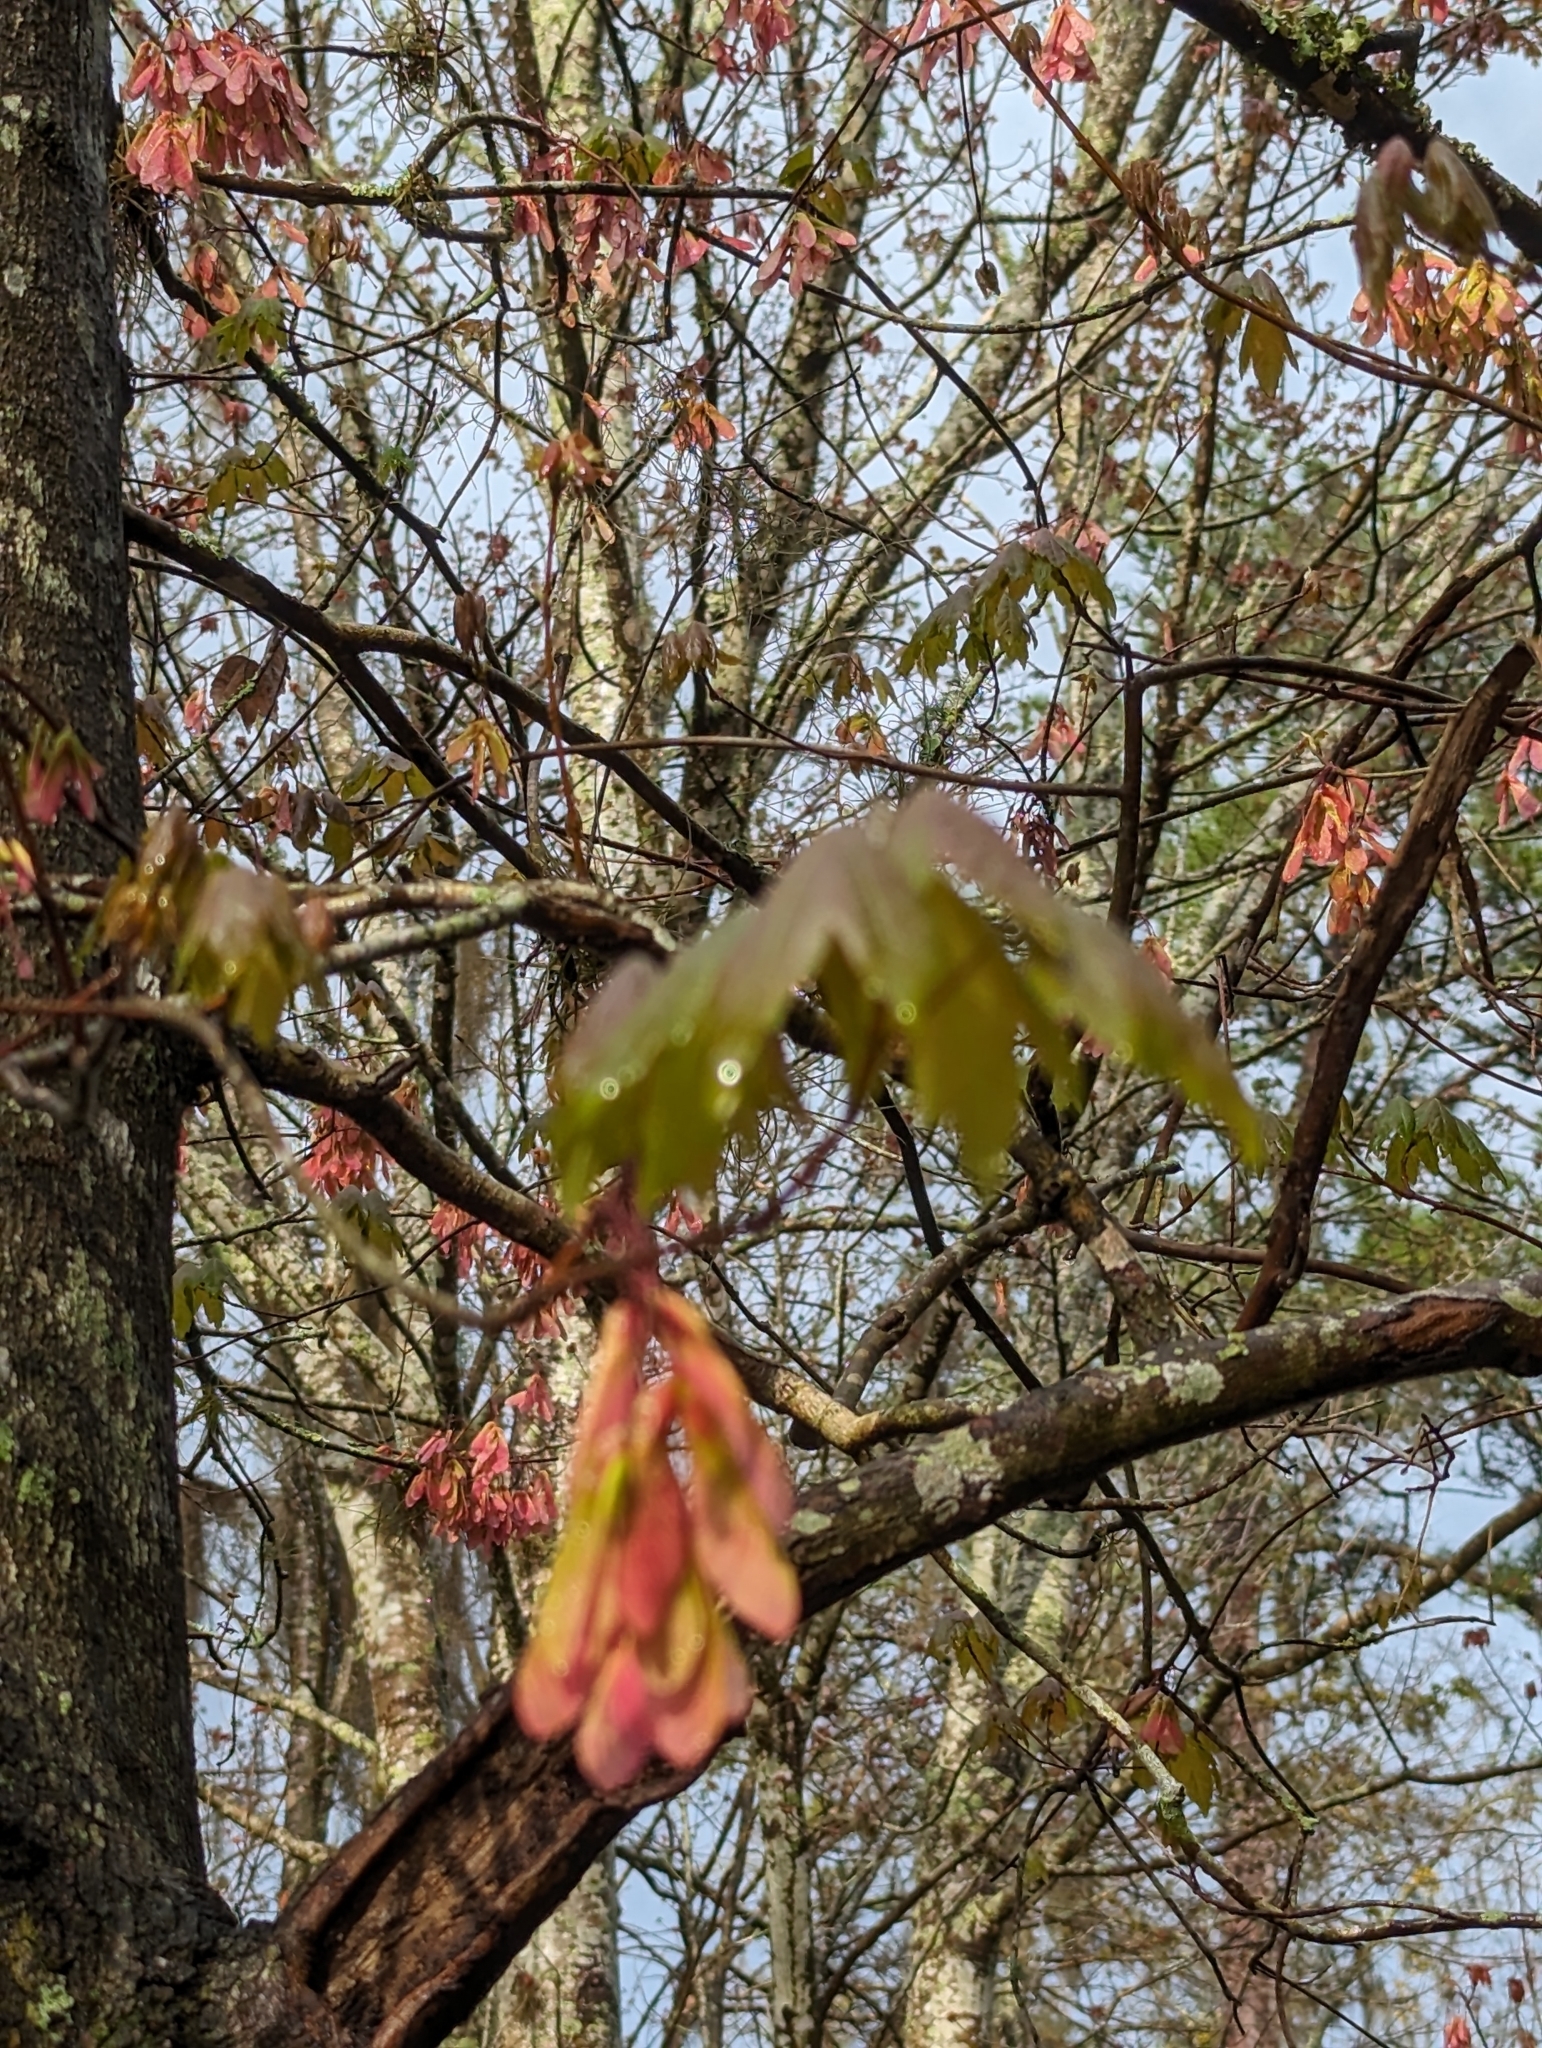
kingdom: Plantae
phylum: Tracheophyta
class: Magnoliopsida
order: Sapindales
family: Sapindaceae
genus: Acer
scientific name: Acer rubrum
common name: Red maple
